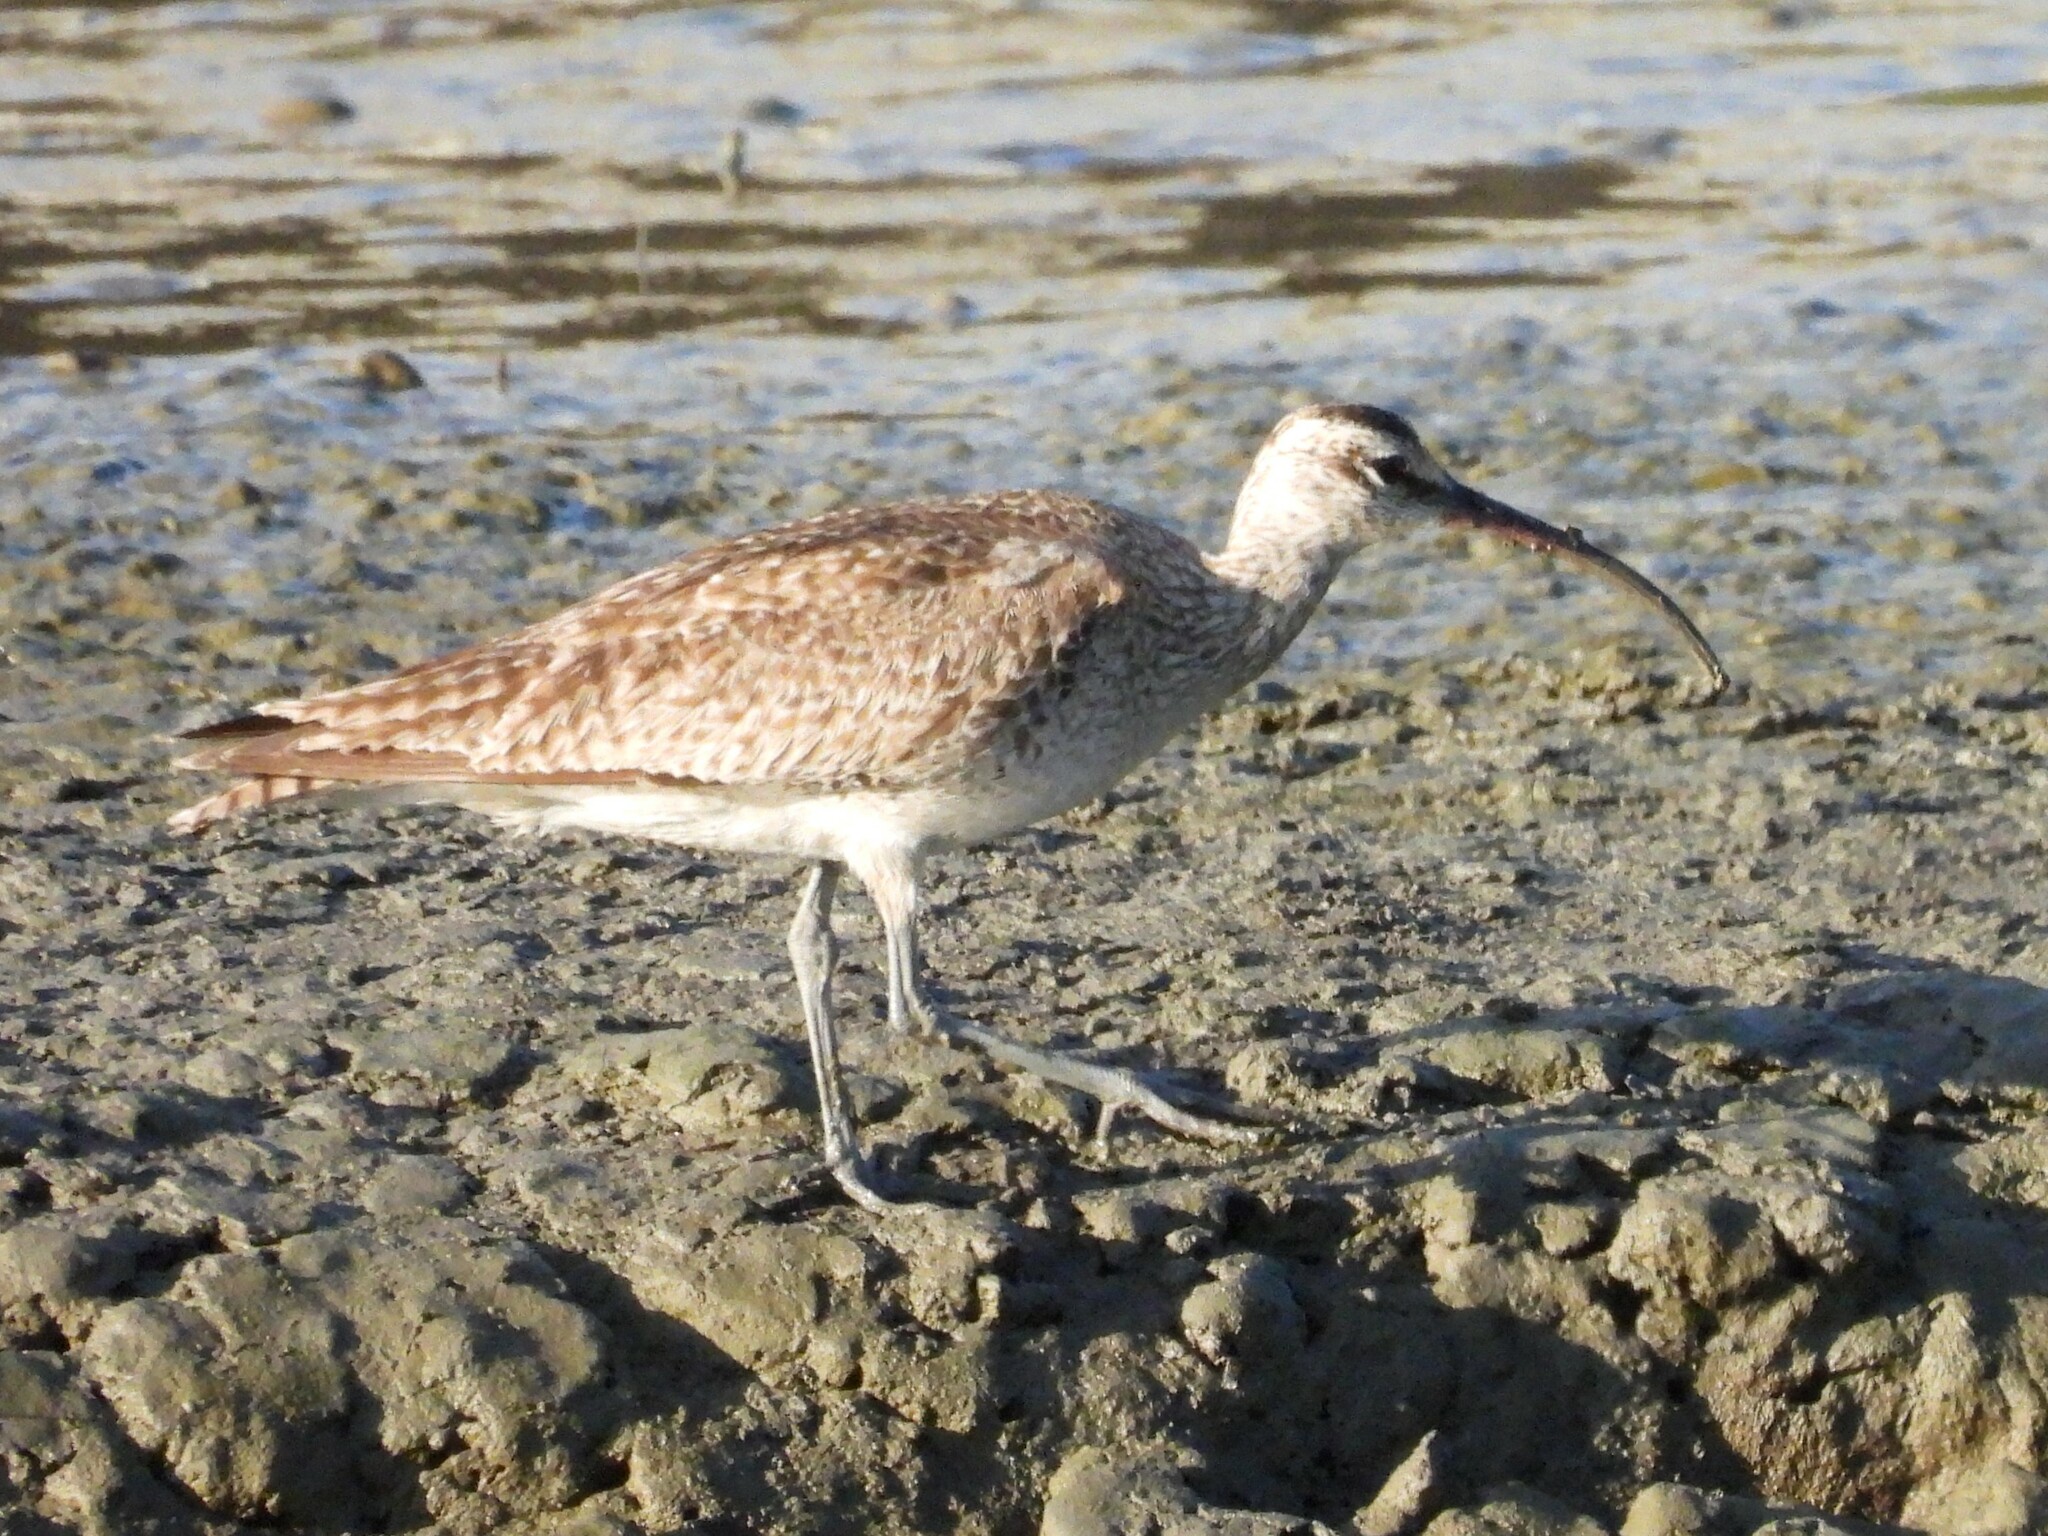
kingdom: Animalia
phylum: Chordata
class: Aves
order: Charadriiformes
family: Scolopacidae
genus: Numenius
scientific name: Numenius phaeopus
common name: Whimbrel
